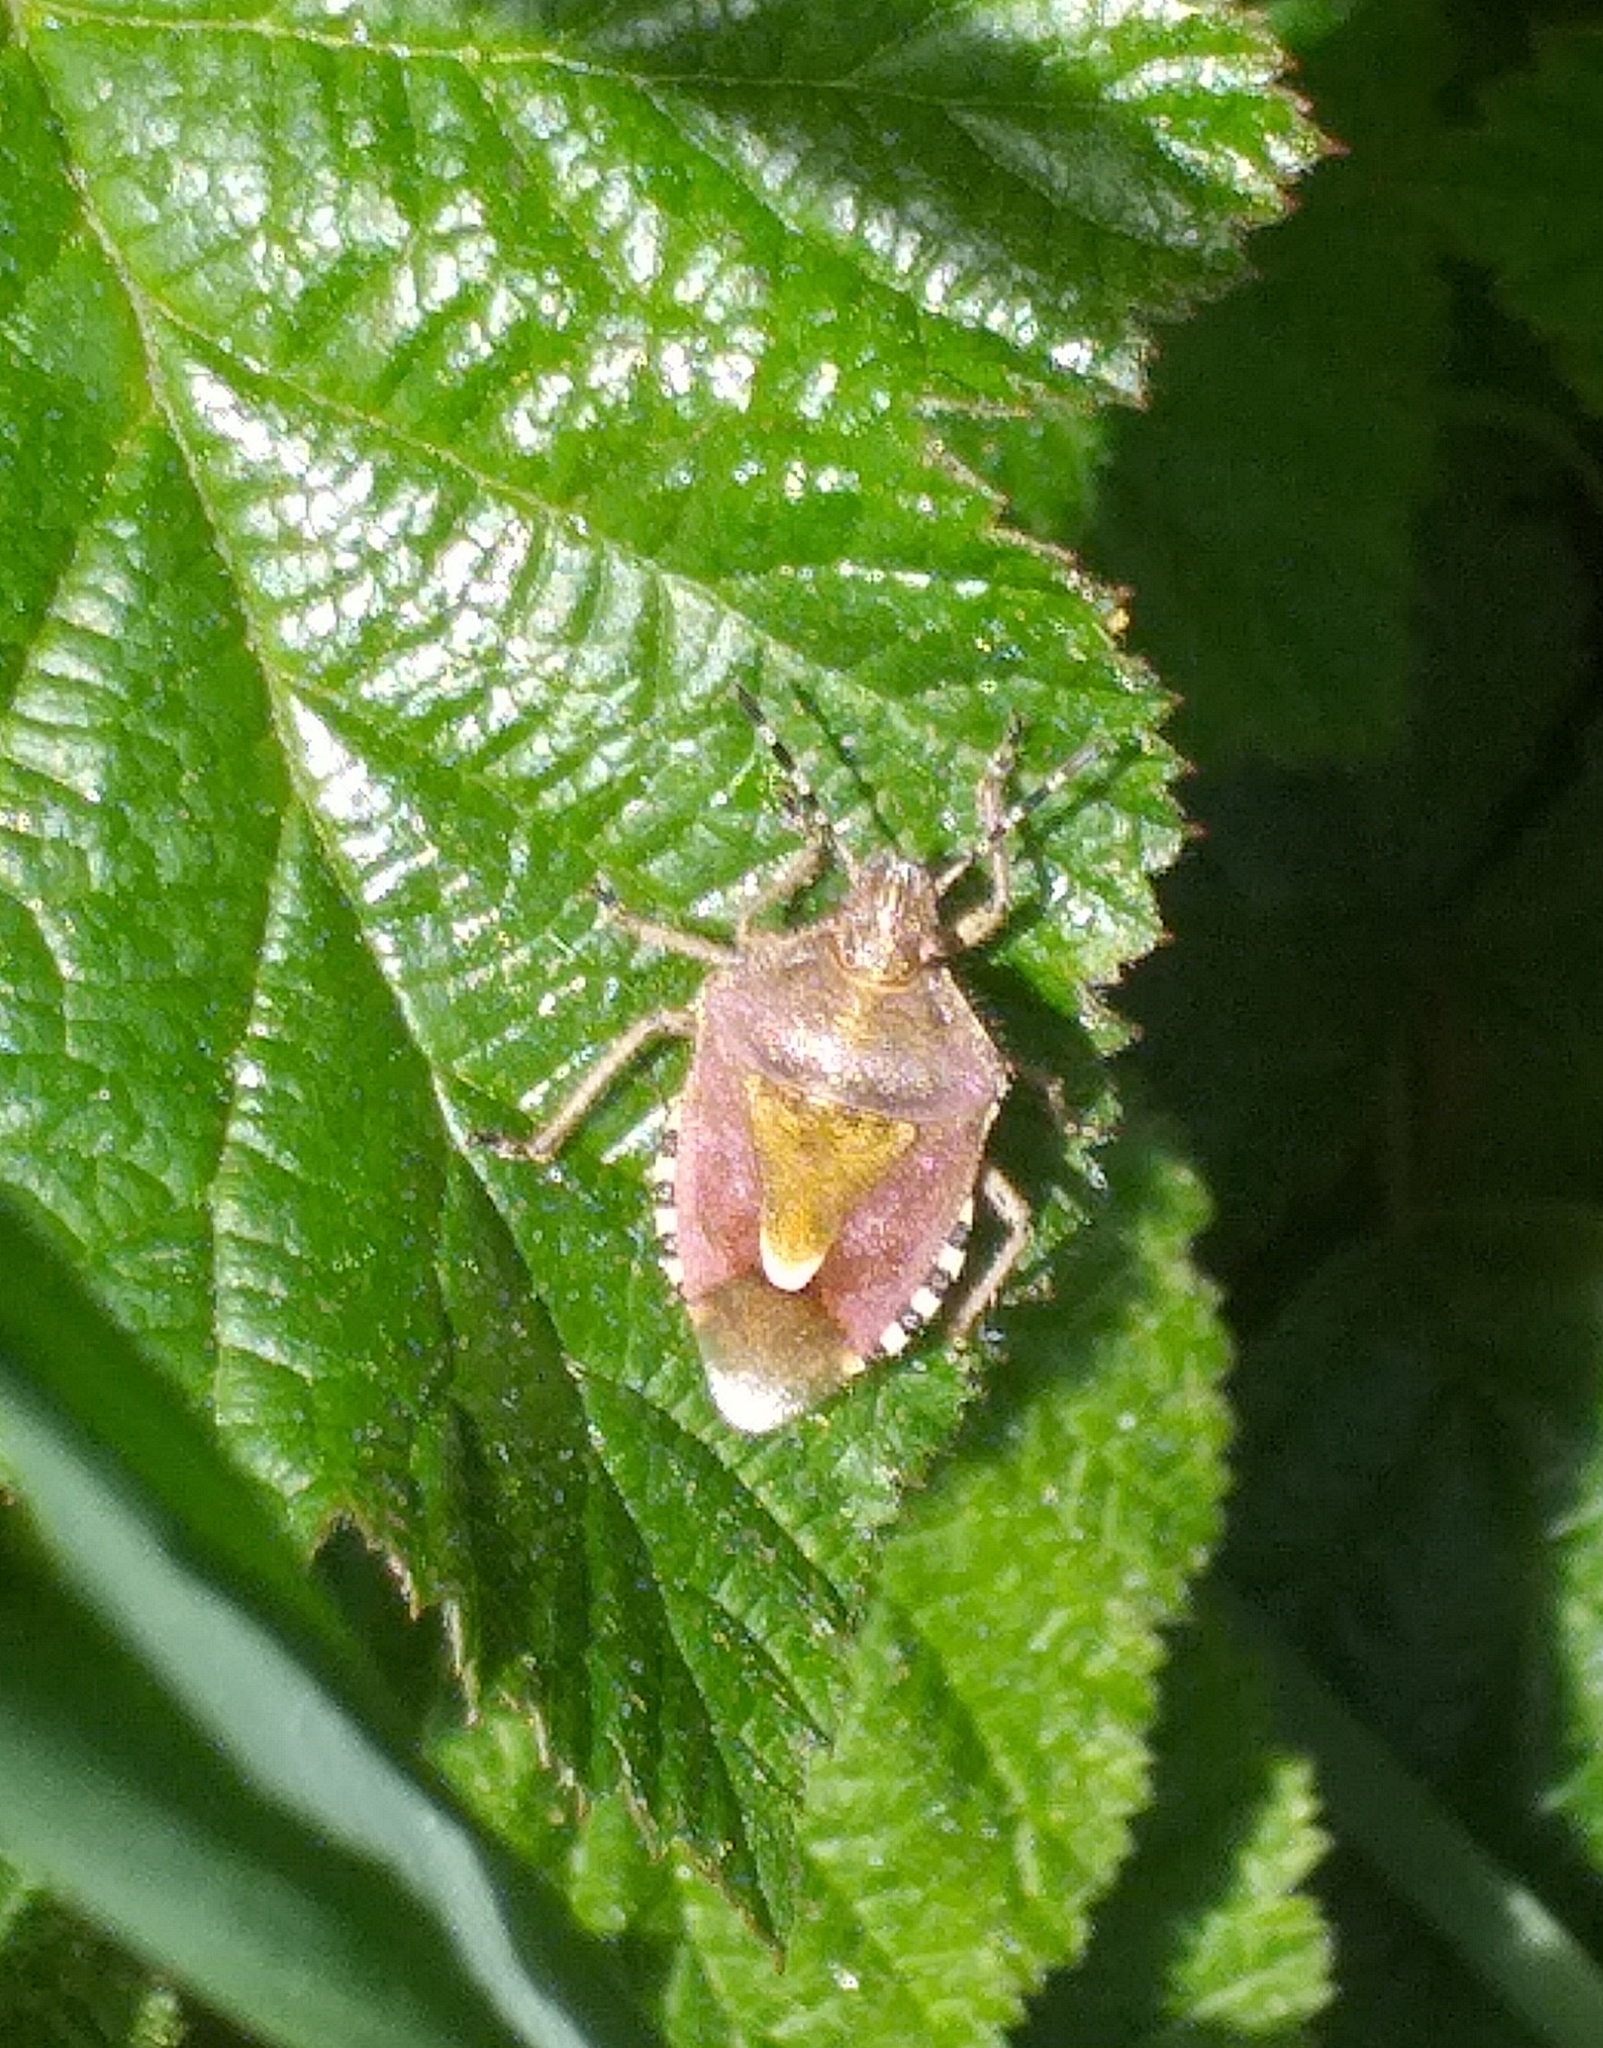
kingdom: Animalia
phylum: Arthropoda
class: Insecta
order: Hemiptera
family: Pentatomidae
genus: Dolycoris
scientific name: Dolycoris baccarum
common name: Sloe bug
